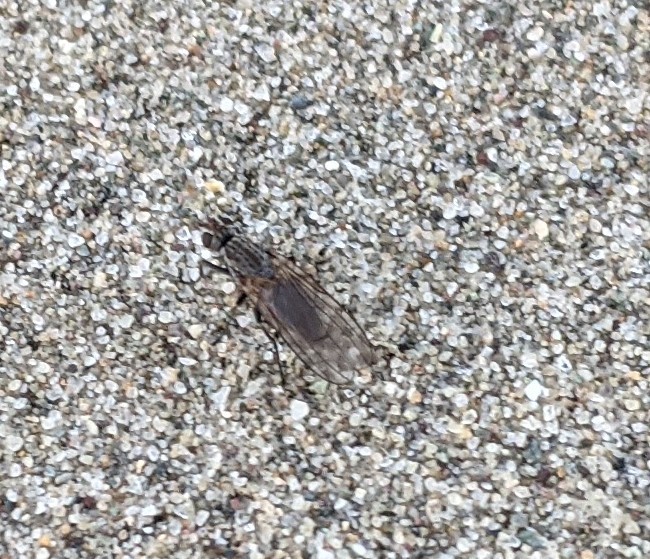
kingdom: Animalia
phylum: Arthropoda
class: Insecta
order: Diptera
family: Coelopidae
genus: Coelopa
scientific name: Coelopa frigida
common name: Kelp fly
